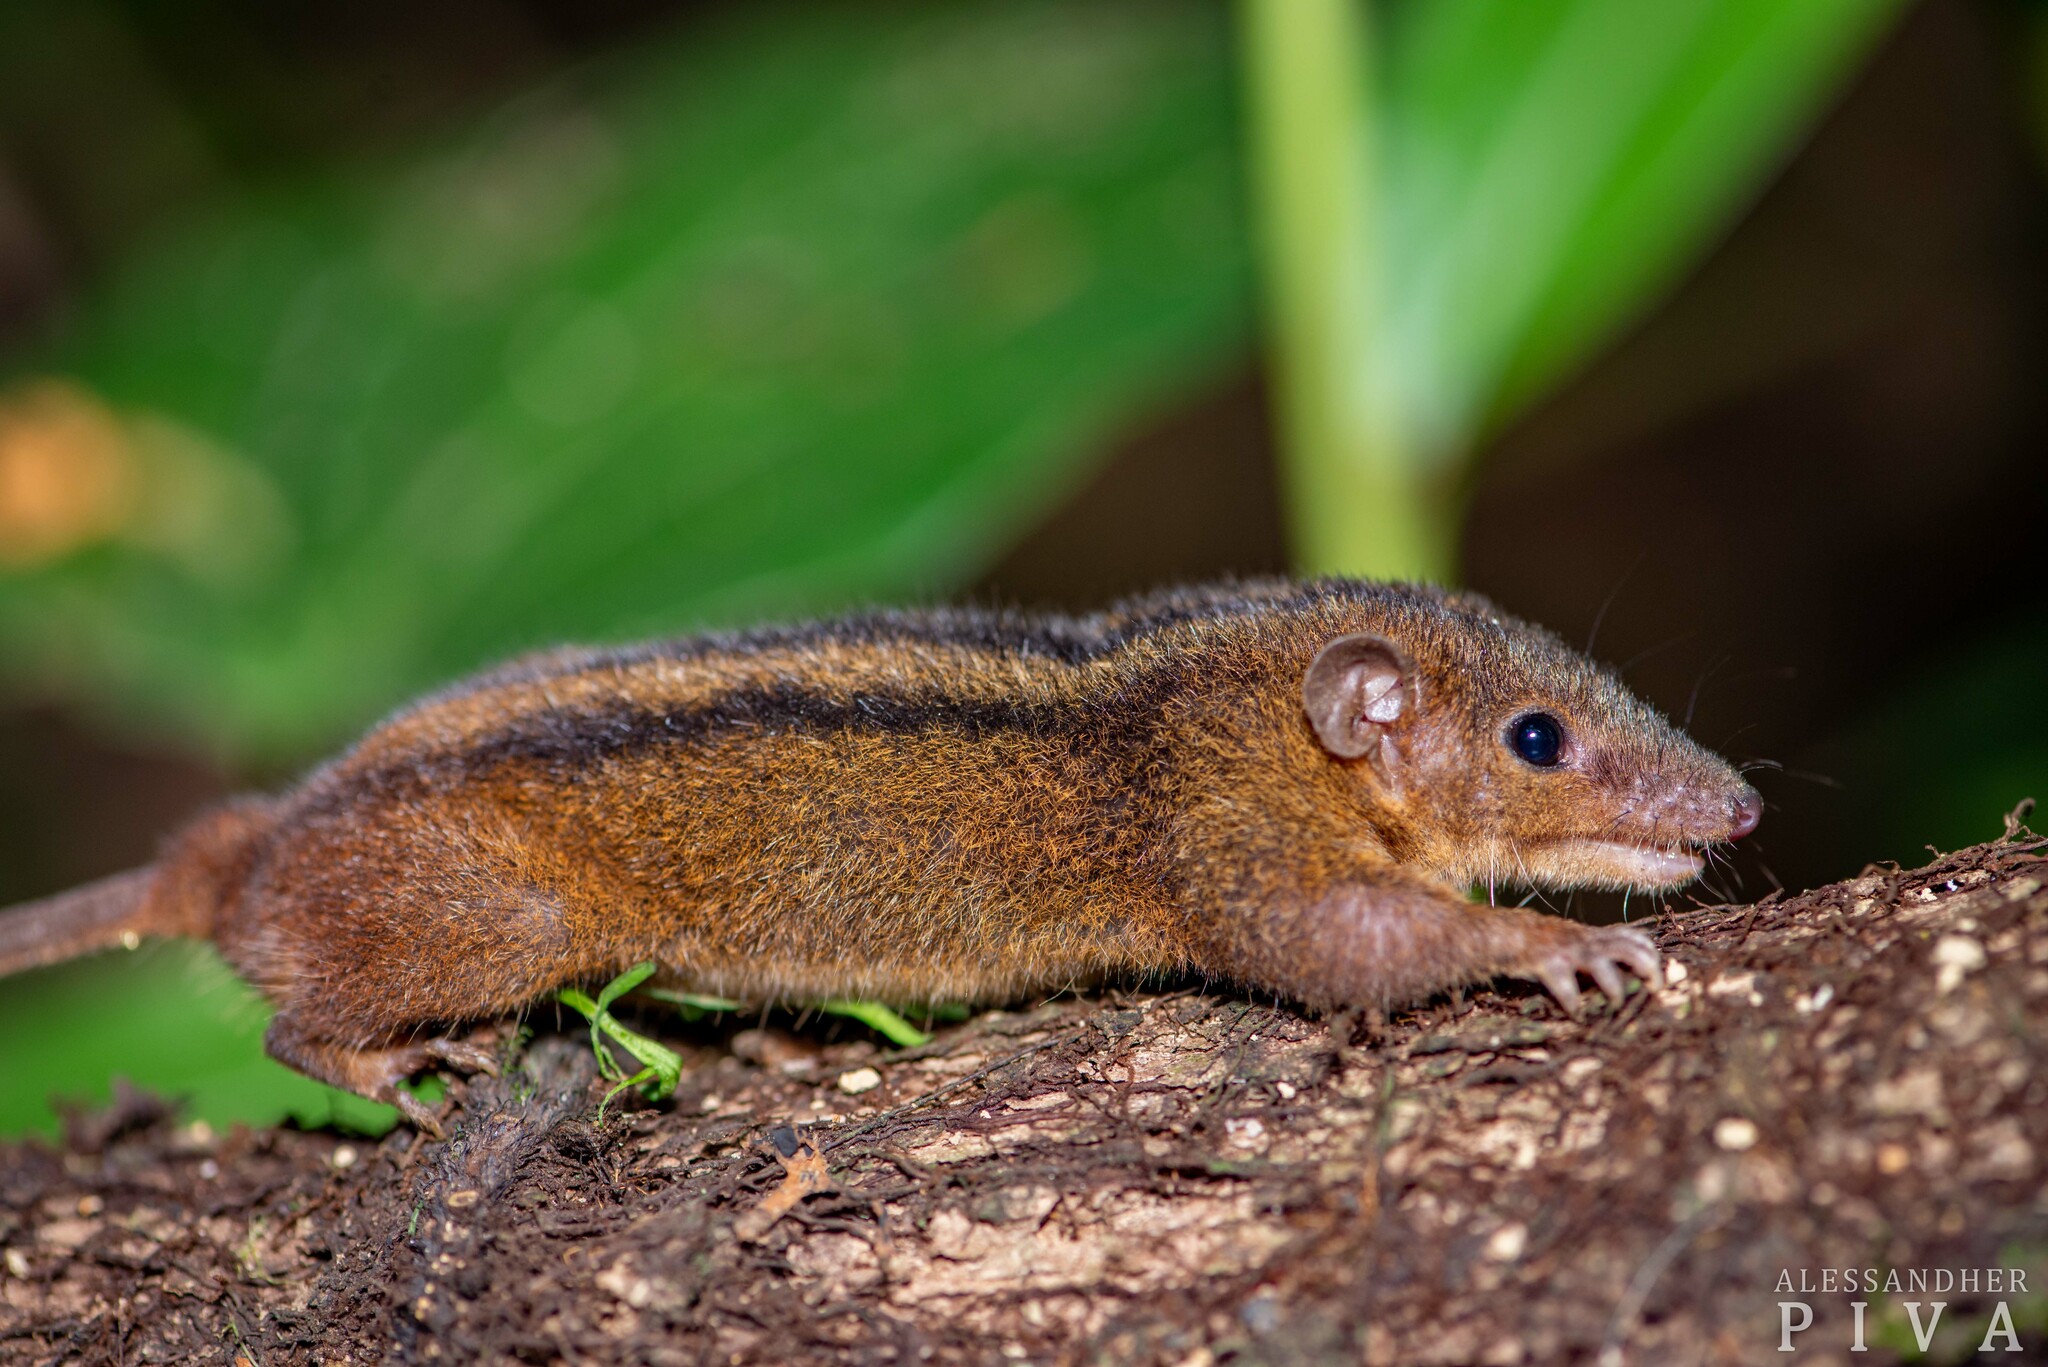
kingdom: Animalia
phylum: Chordata
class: Mammalia
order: Didelphimorphia
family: Didelphidae
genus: Monodelphis
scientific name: Monodelphis americana
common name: Northern three-striped opossum
